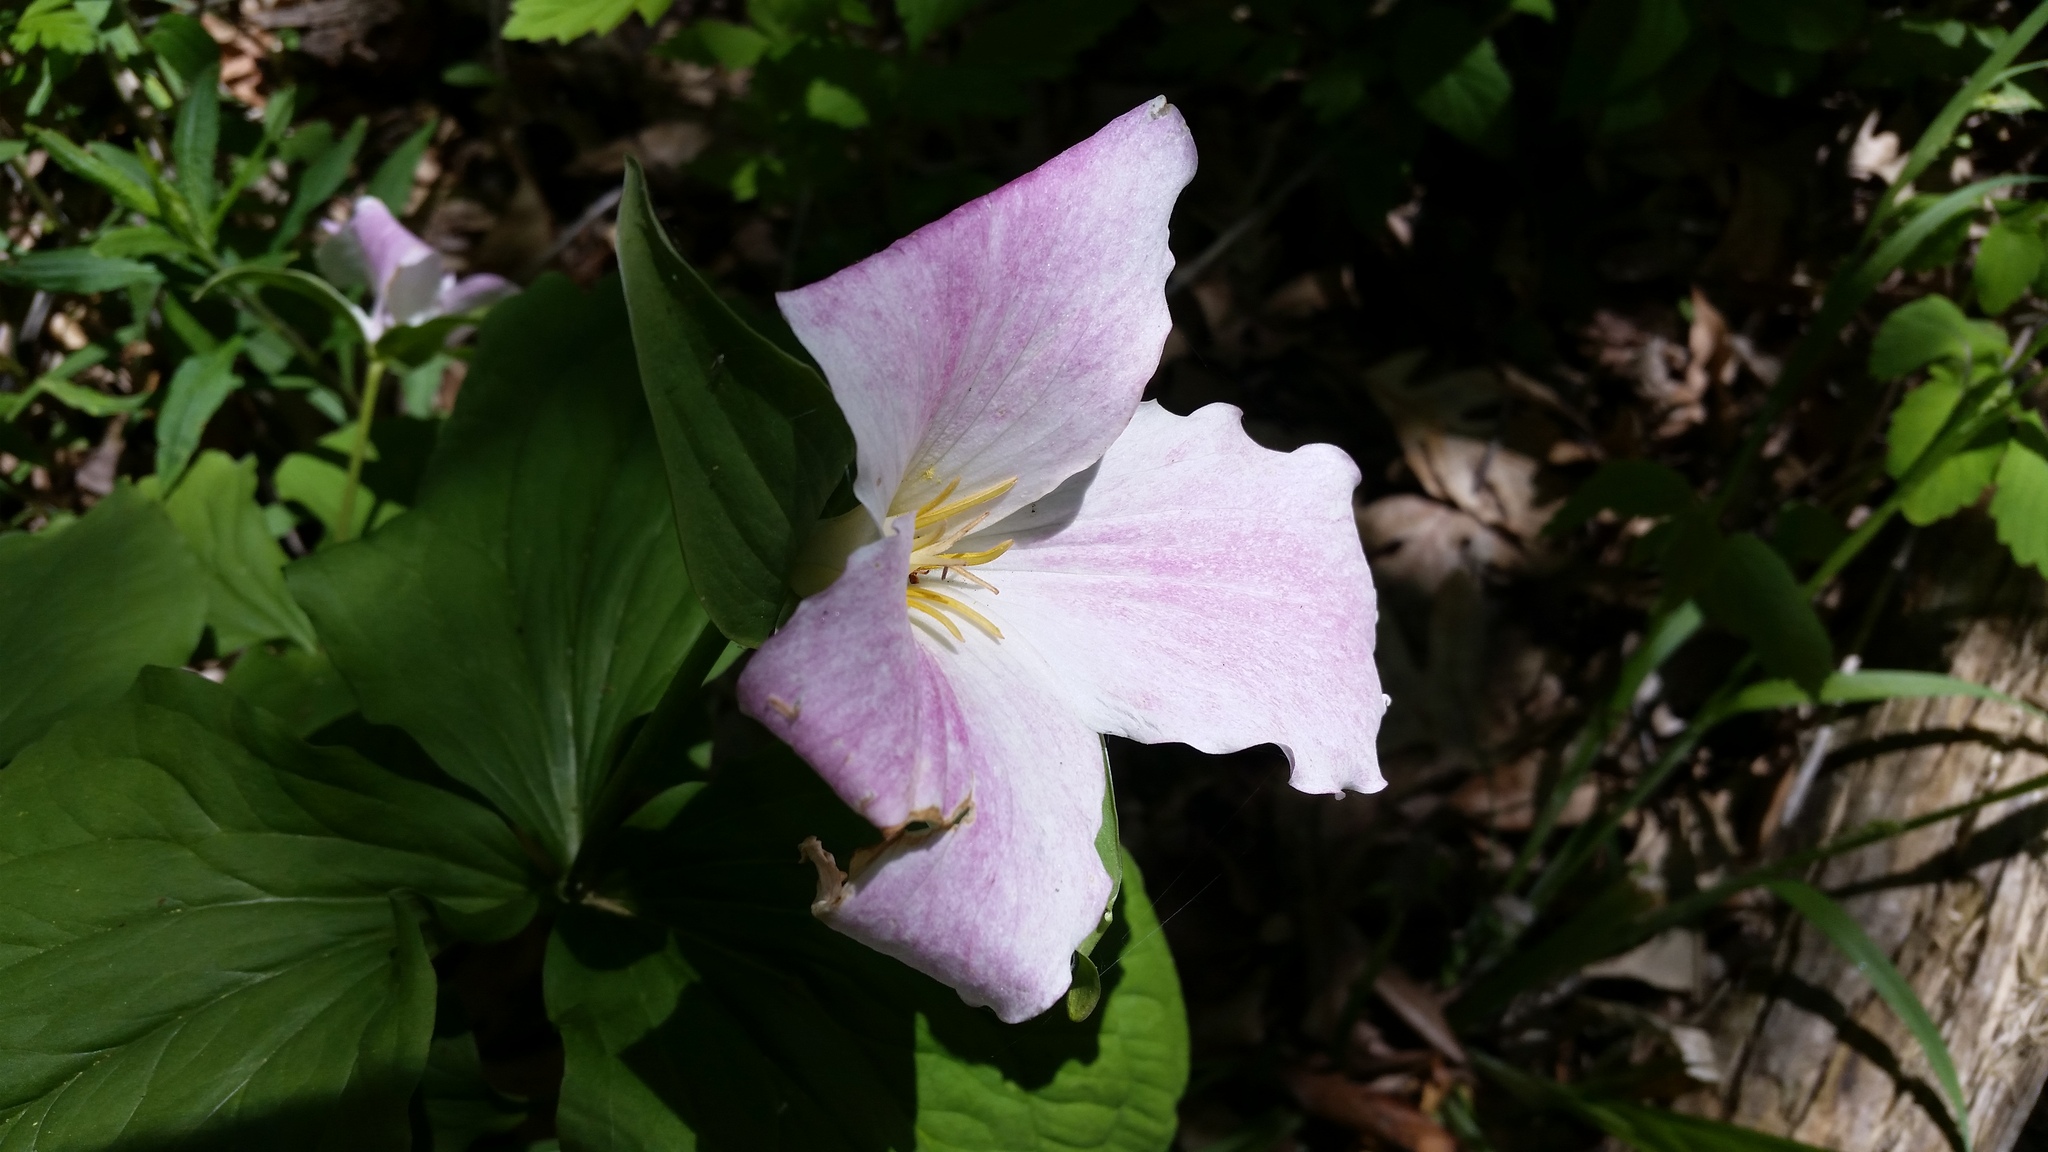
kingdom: Plantae
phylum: Tracheophyta
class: Liliopsida
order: Liliales
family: Melanthiaceae
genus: Trillium
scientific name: Trillium grandiflorum
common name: Great white trillium
